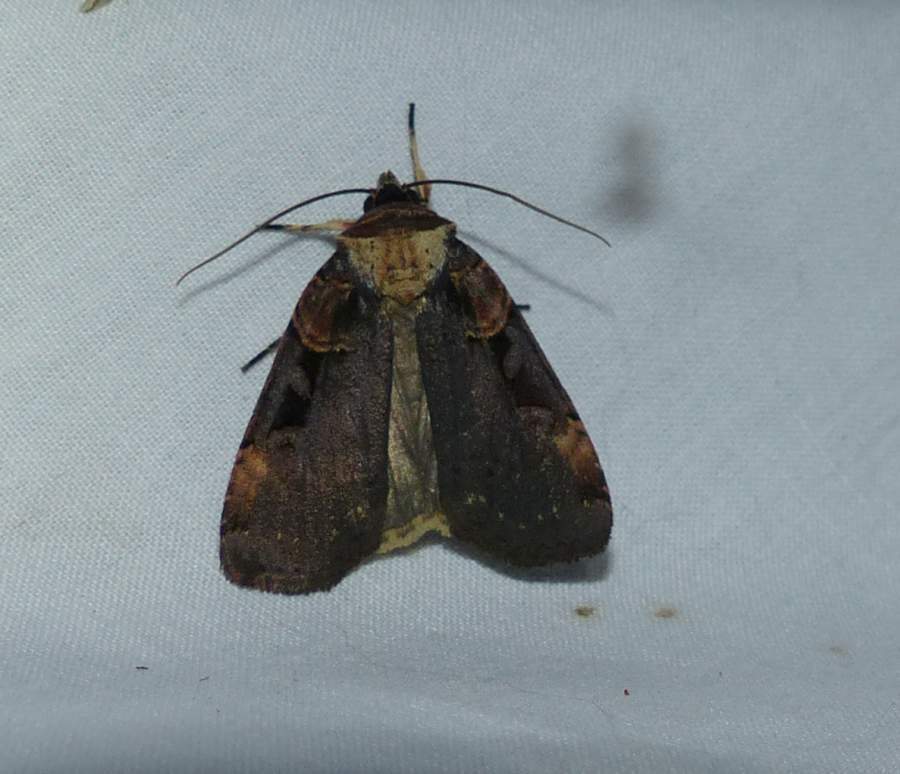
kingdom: Animalia
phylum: Arthropoda
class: Insecta
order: Lepidoptera
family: Noctuidae
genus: Pseudohermonassa
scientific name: Pseudohermonassa bicarnea
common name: Pink spotted dart
